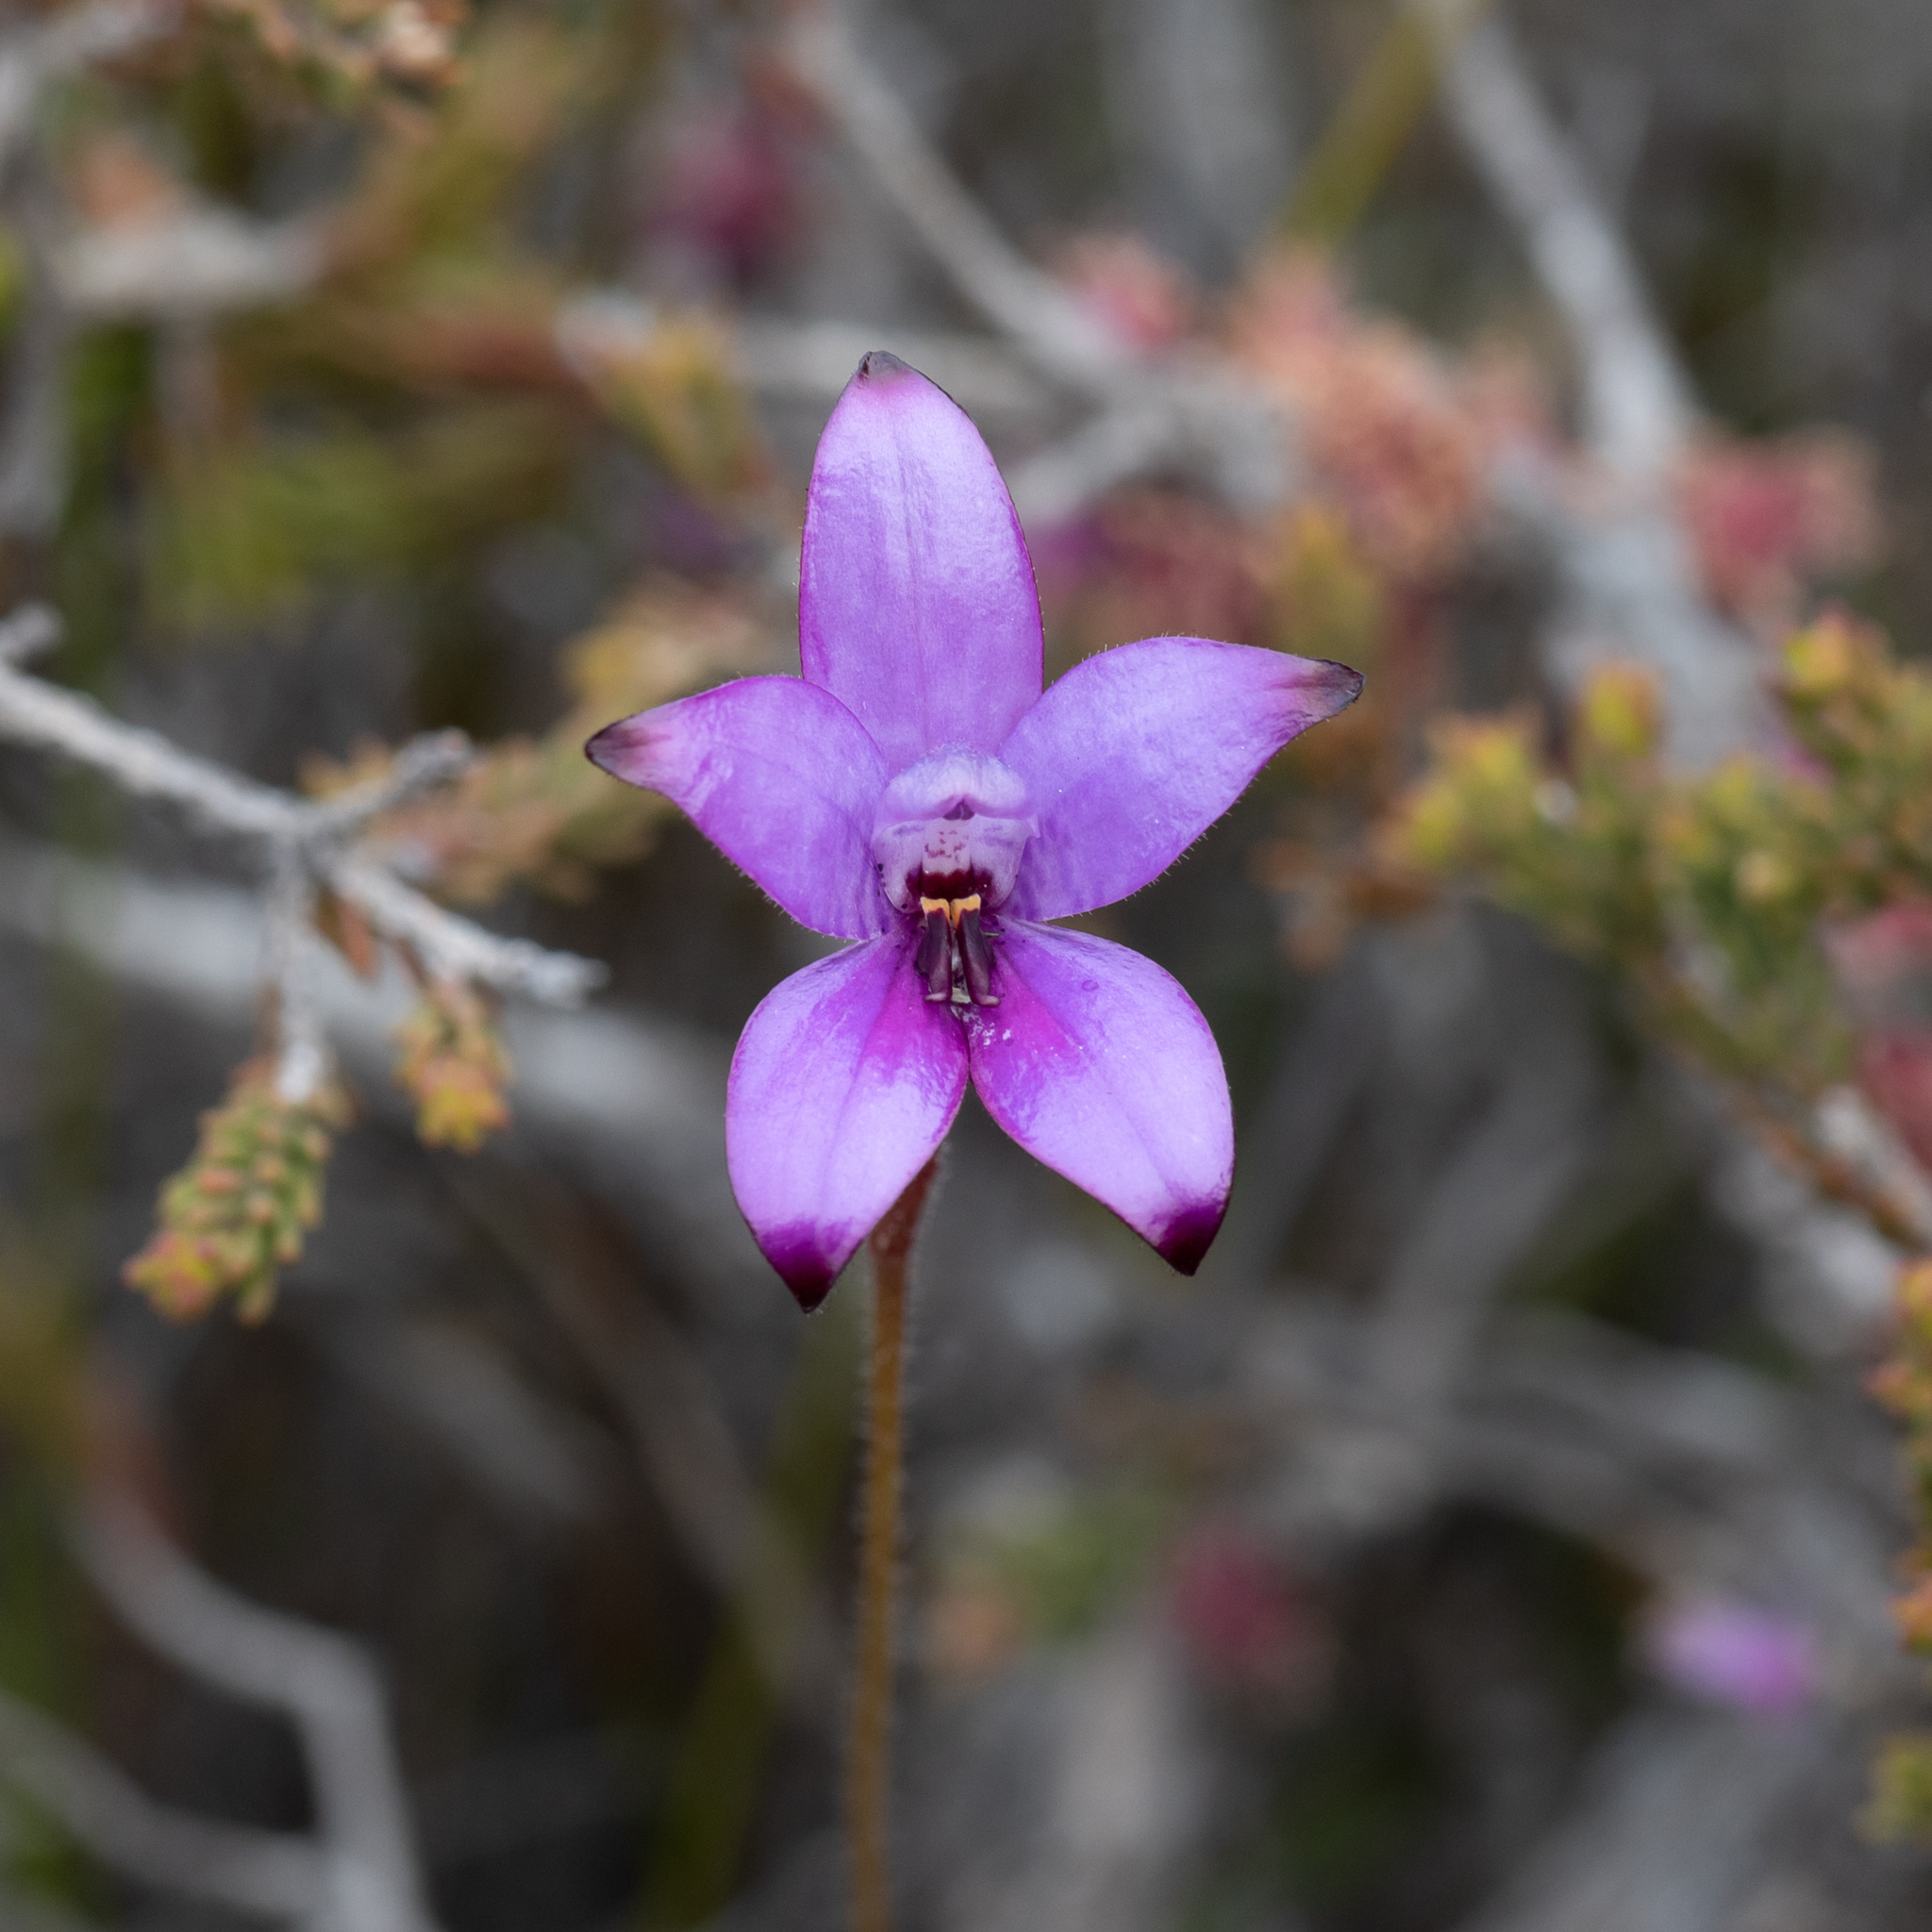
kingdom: Plantae
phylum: Tracheophyta
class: Liliopsida
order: Asparagales
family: Orchidaceae
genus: Caladenia
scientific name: Caladenia brunonis
